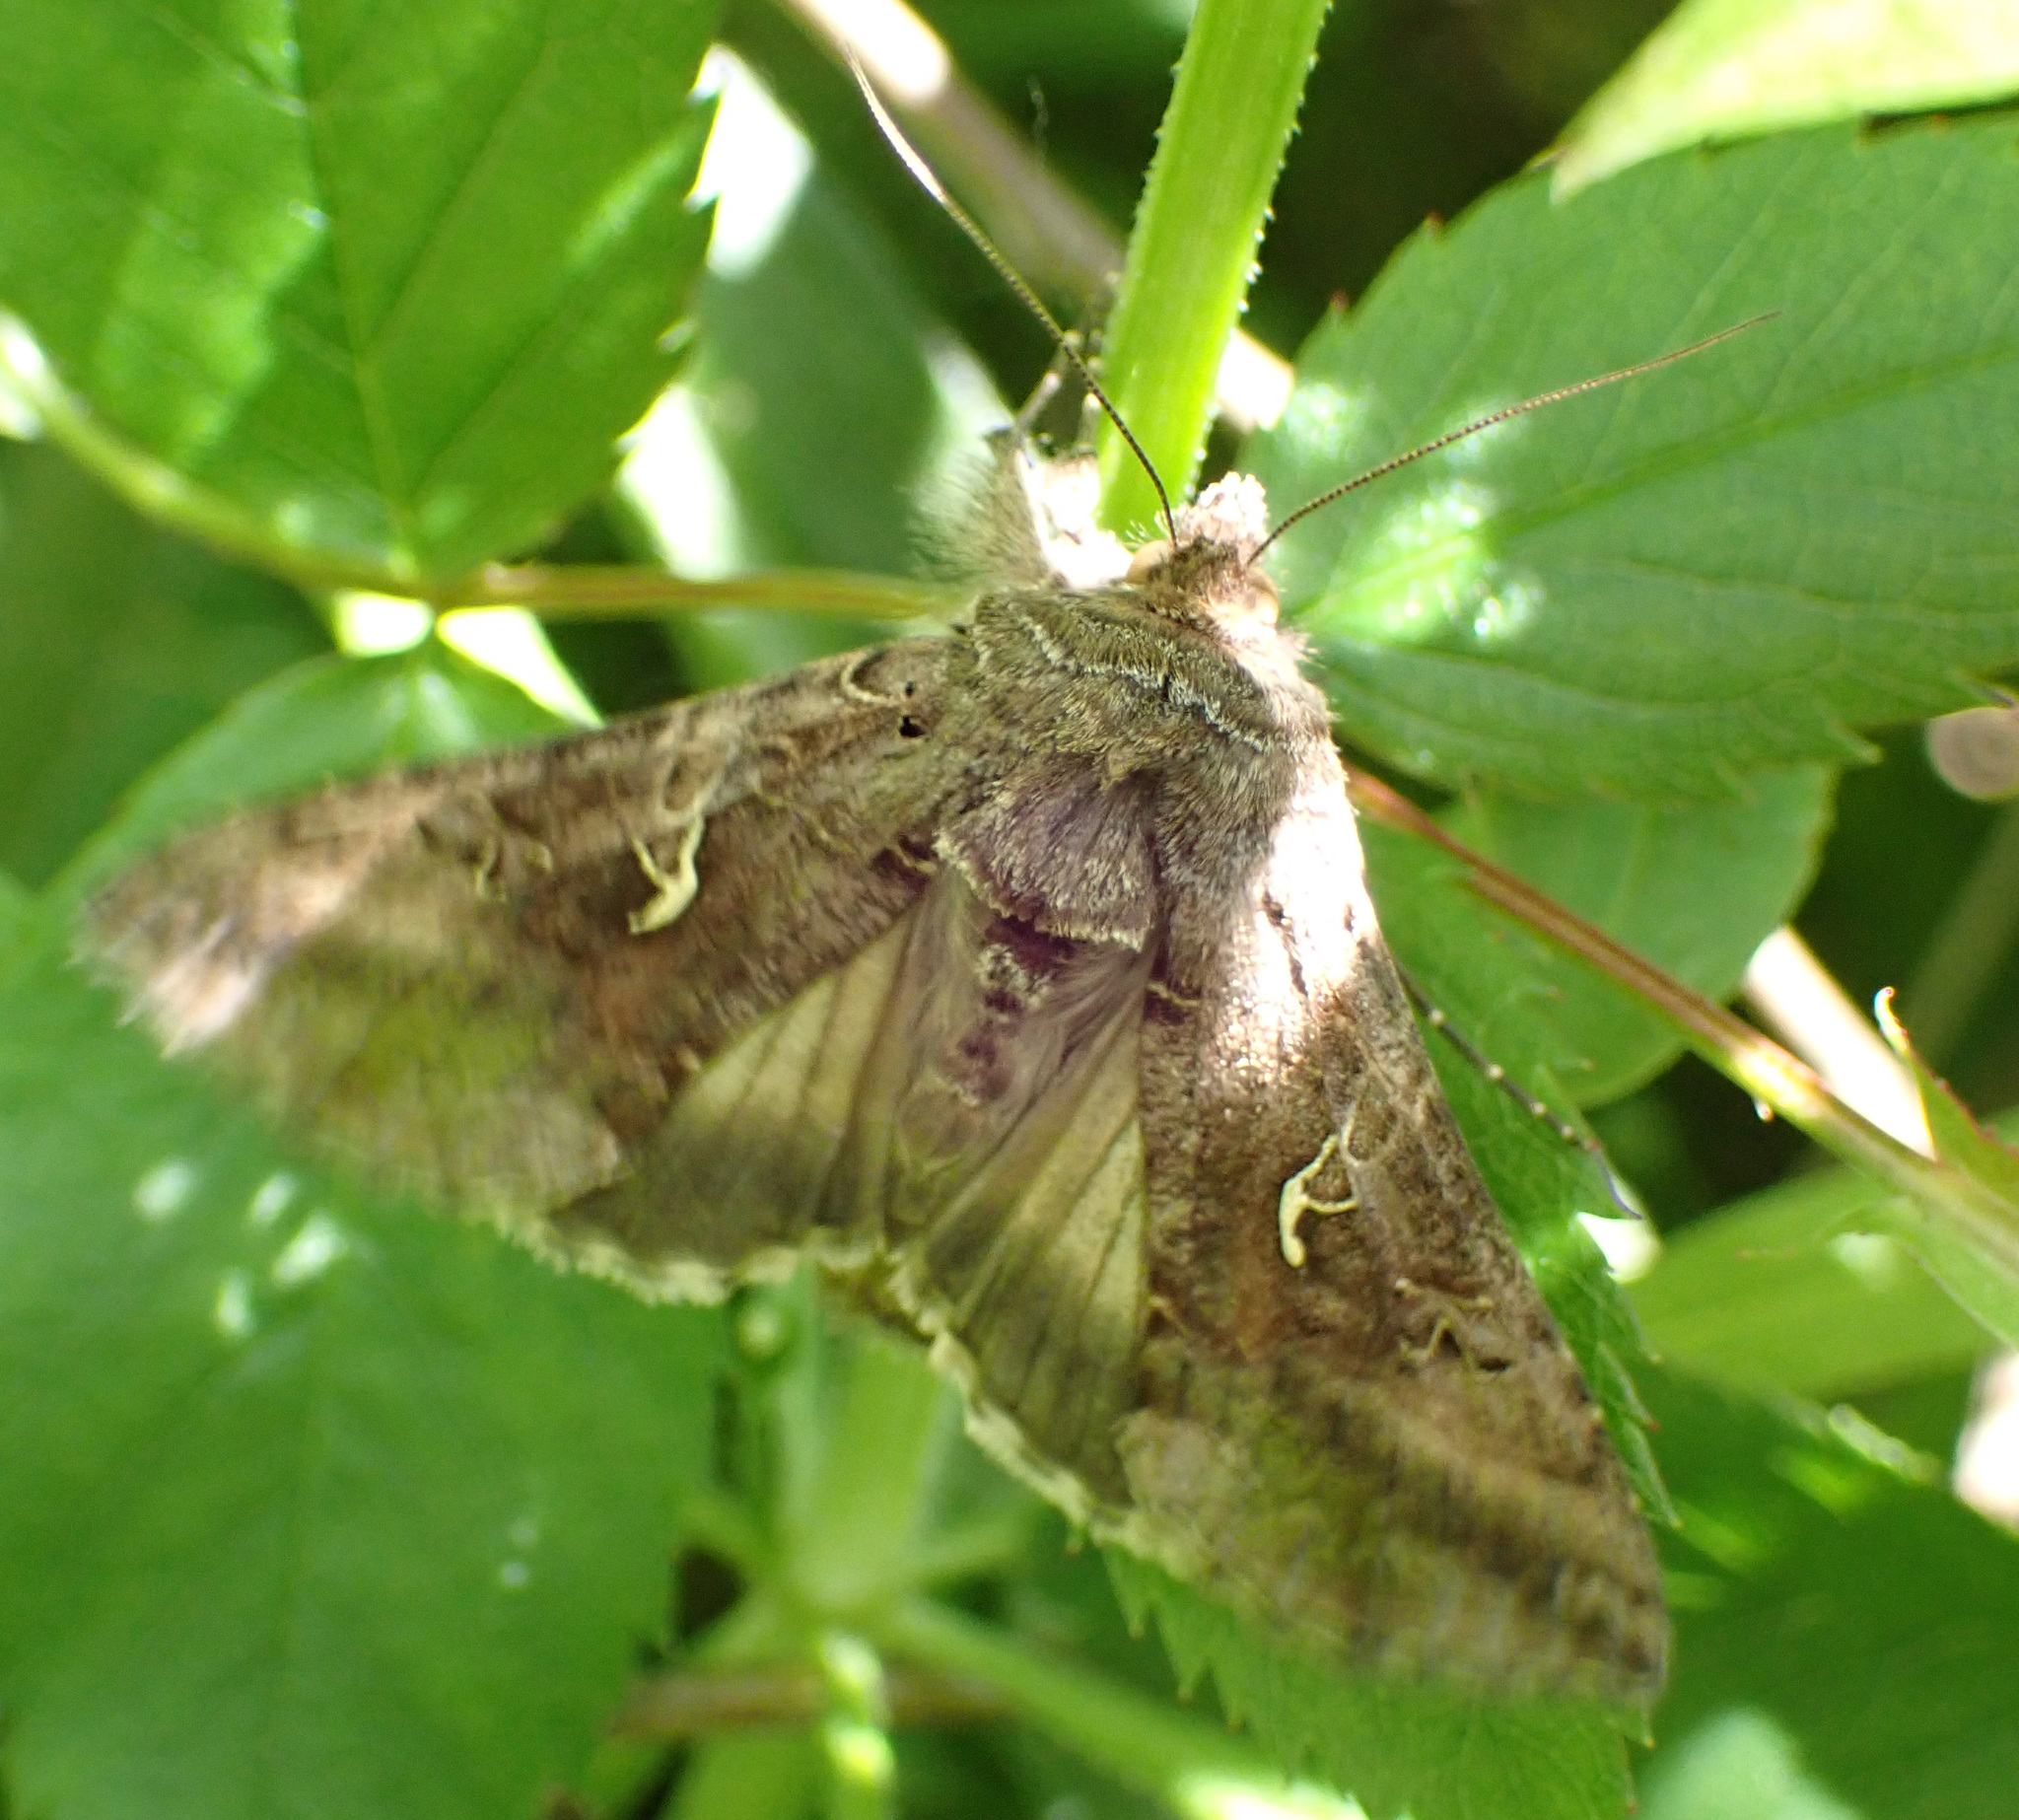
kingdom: Animalia
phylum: Arthropoda
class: Insecta
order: Lepidoptera
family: Noctuidae
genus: Autographa
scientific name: Autographa gamma
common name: Silver y
